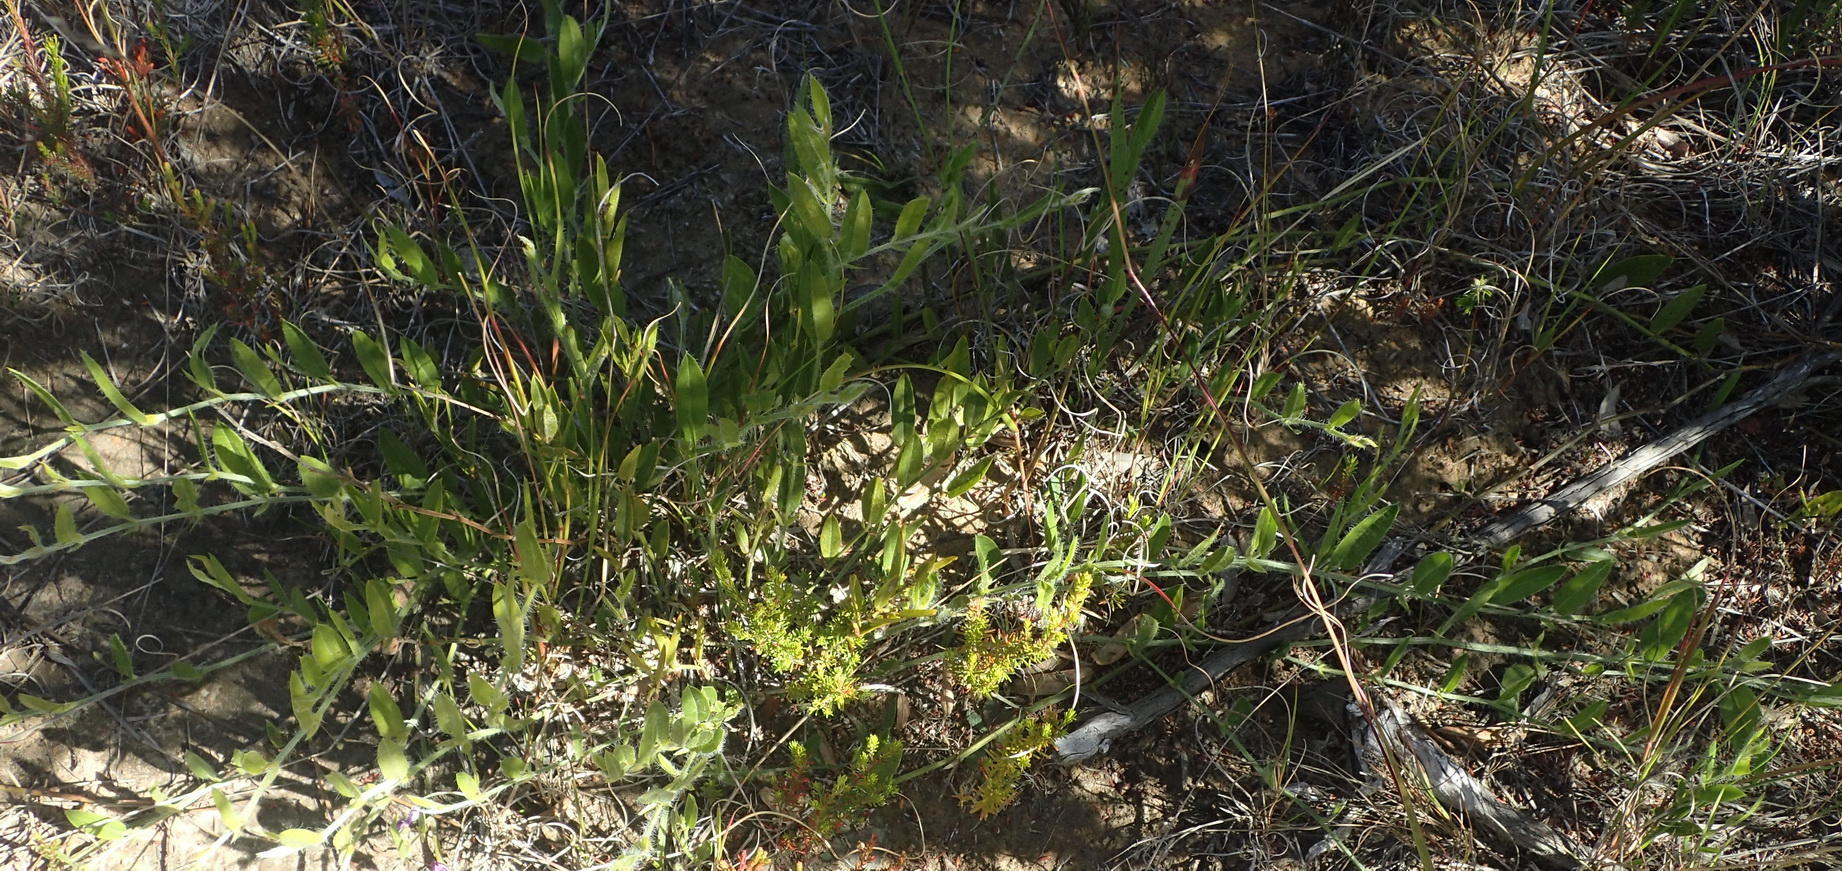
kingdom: Plantae
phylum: Tracheophyta
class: Magnoliopsida
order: Fabales
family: Fabaceae
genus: Psoralea
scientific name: Psoralea plauta
